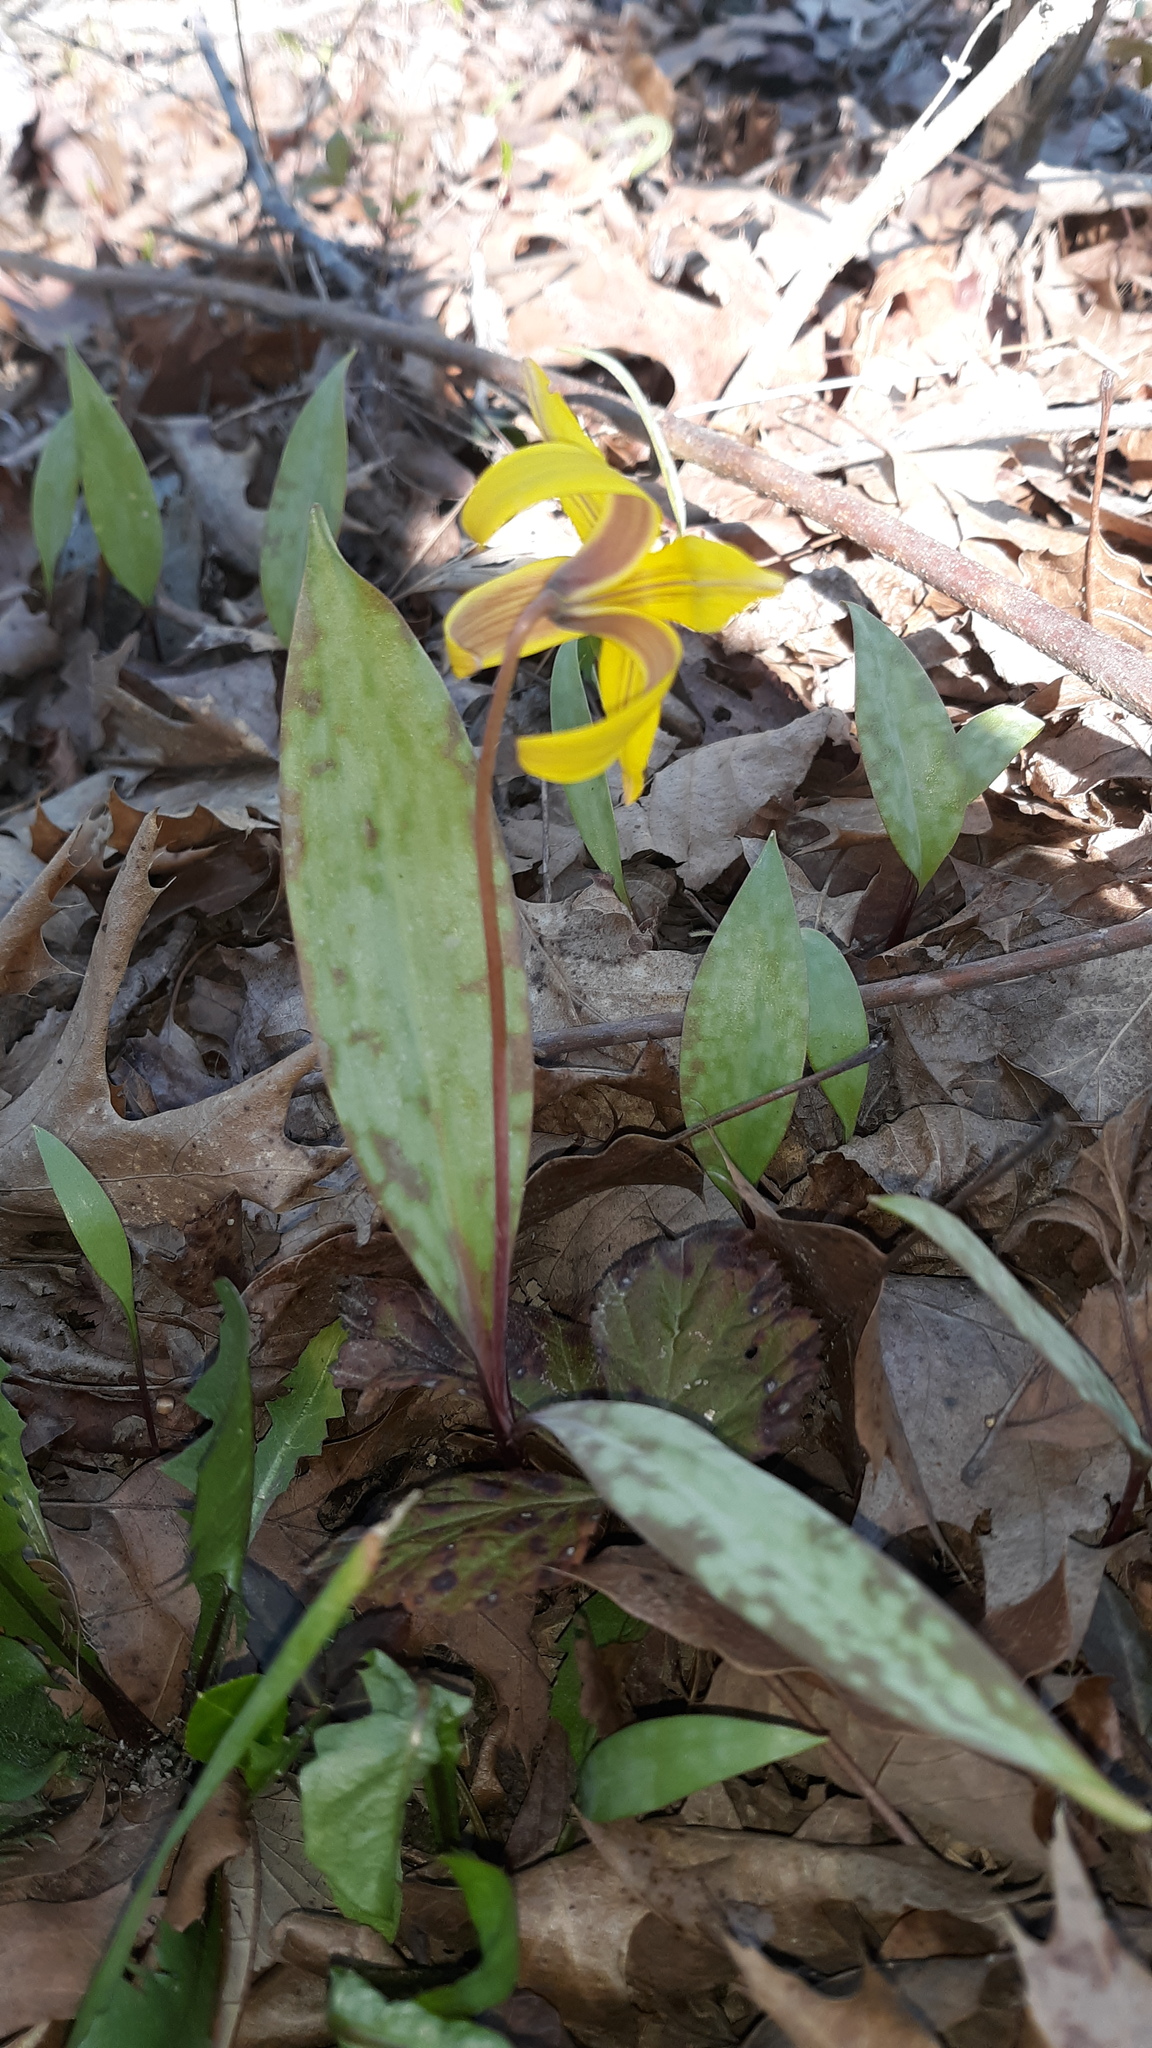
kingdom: Plantae
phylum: Tracheophyta
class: Liliopsida
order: Liliales
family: Liliaceae
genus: Erythronium
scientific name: Erythronium americanum
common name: Yellow adder's-tongue
